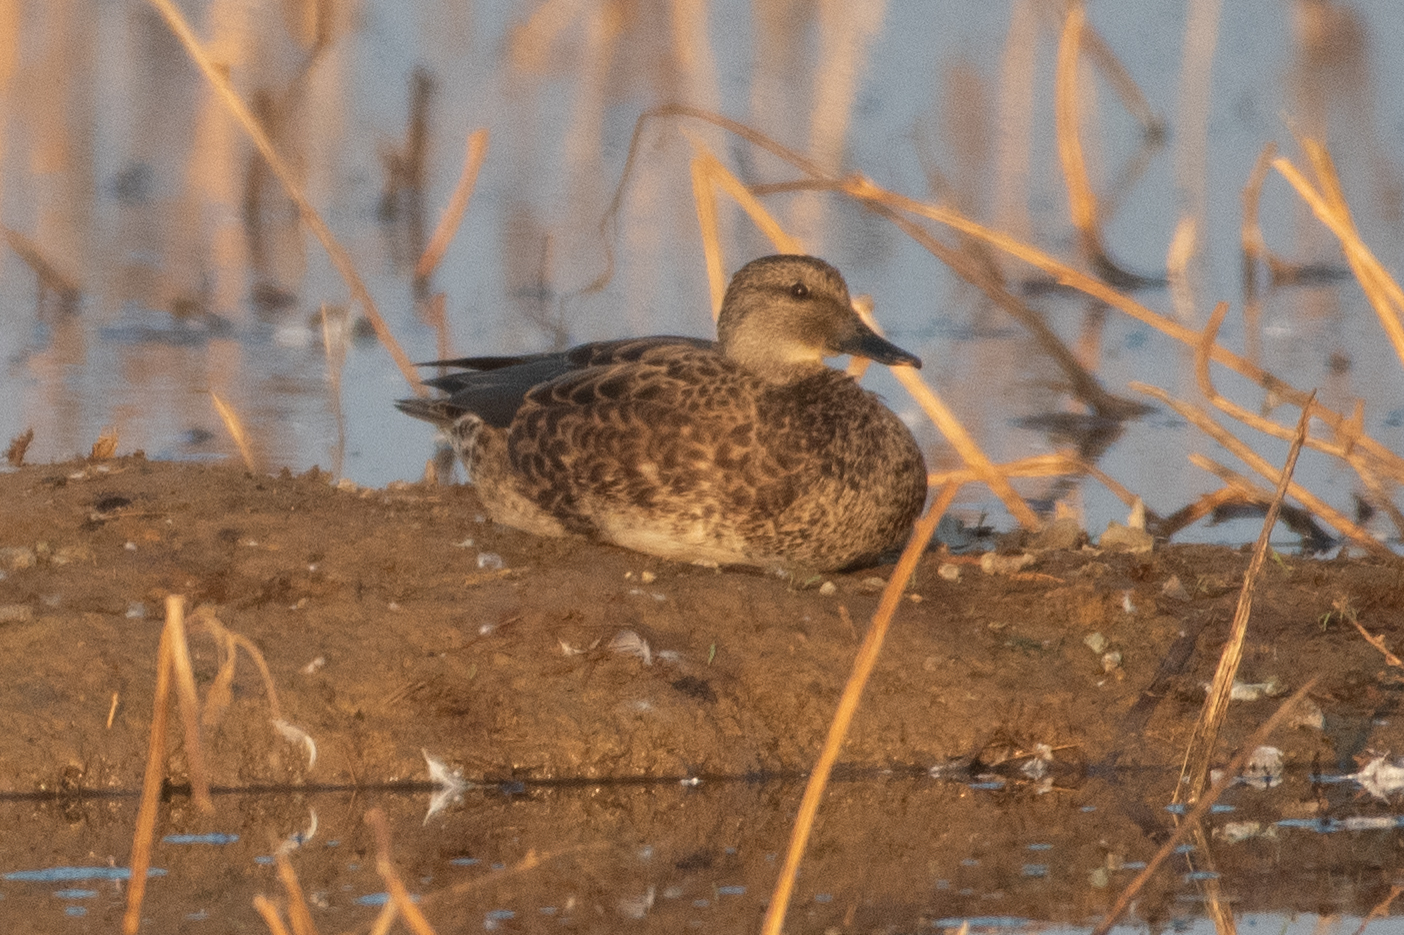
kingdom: Animalia
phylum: Chordata
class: Aves
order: Anseriformes
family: Anatidae
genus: Mareca
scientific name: Mareca strepera
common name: Gadwall
